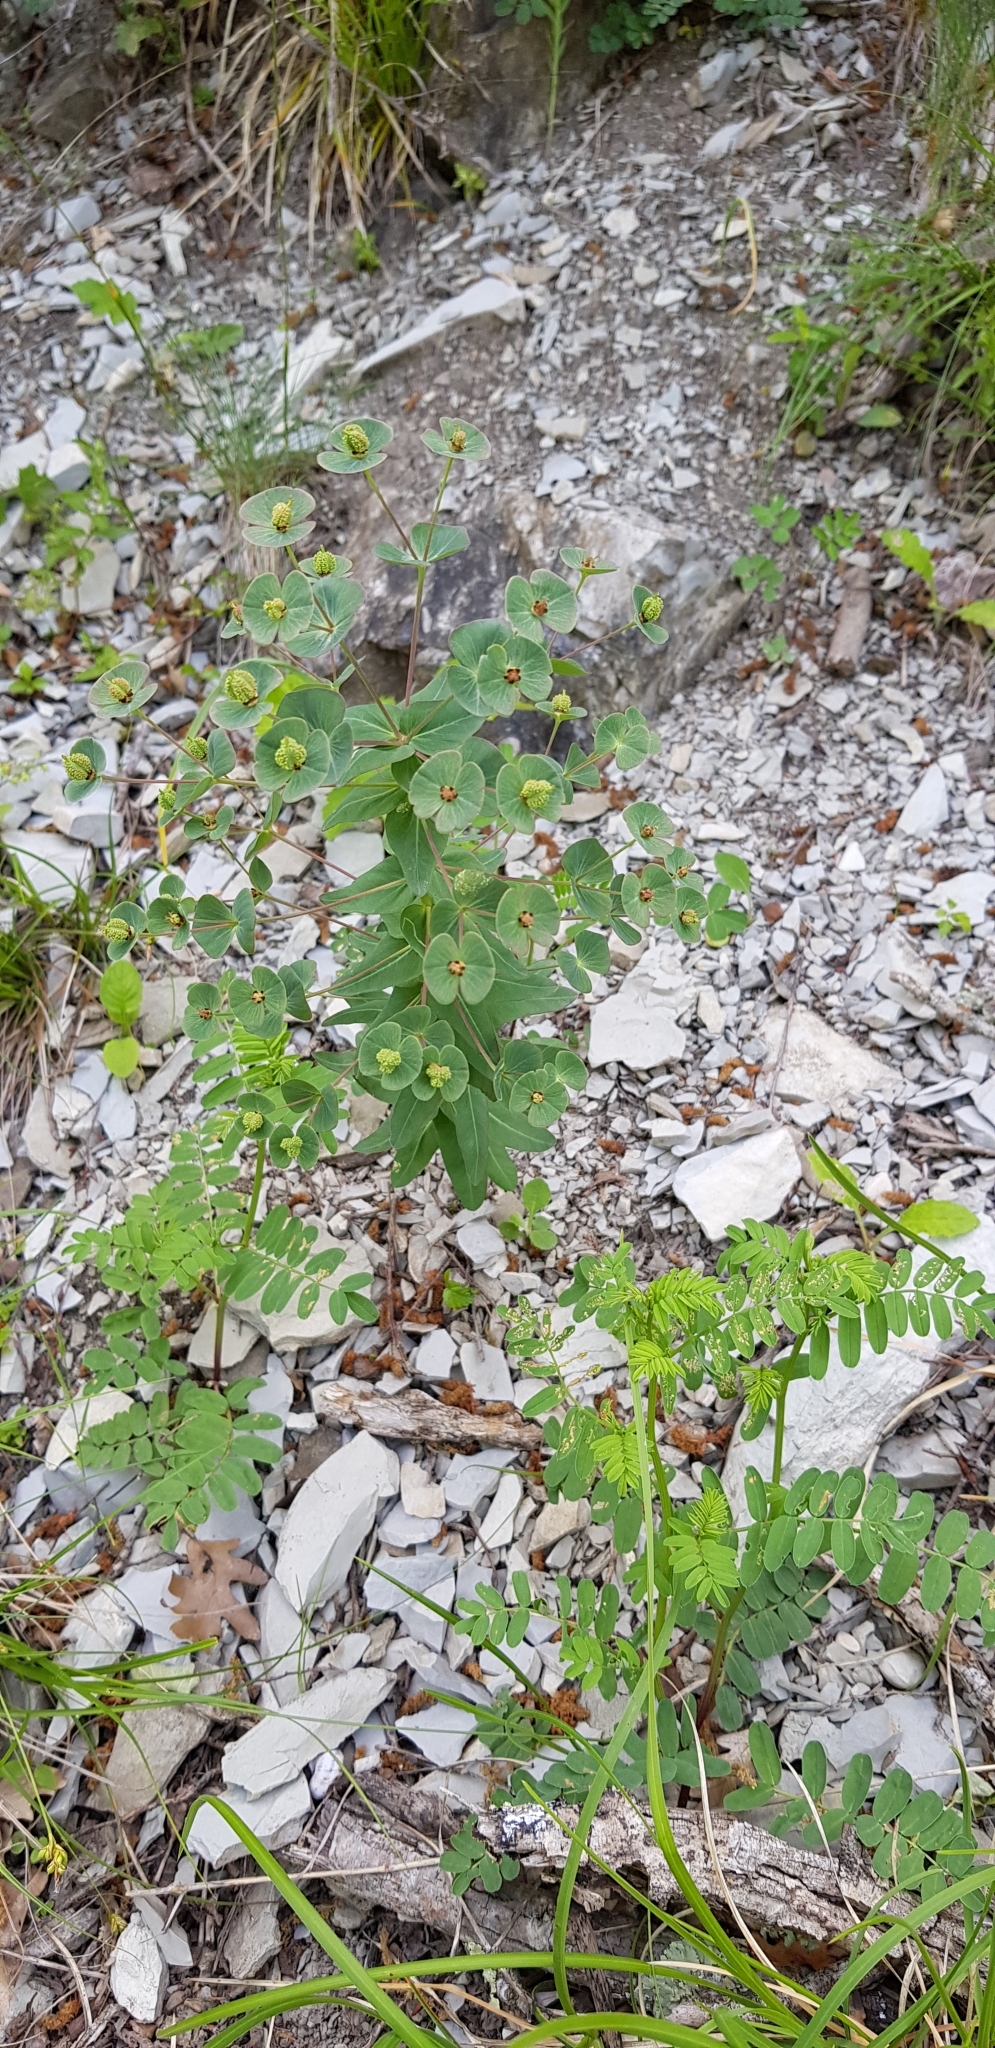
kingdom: Plantae
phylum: Tracheophyta
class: Magnoliopsida
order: Malpighiales
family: Euphorbiaceae
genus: Euphorbia
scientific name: Euphorbia condylocarpa
